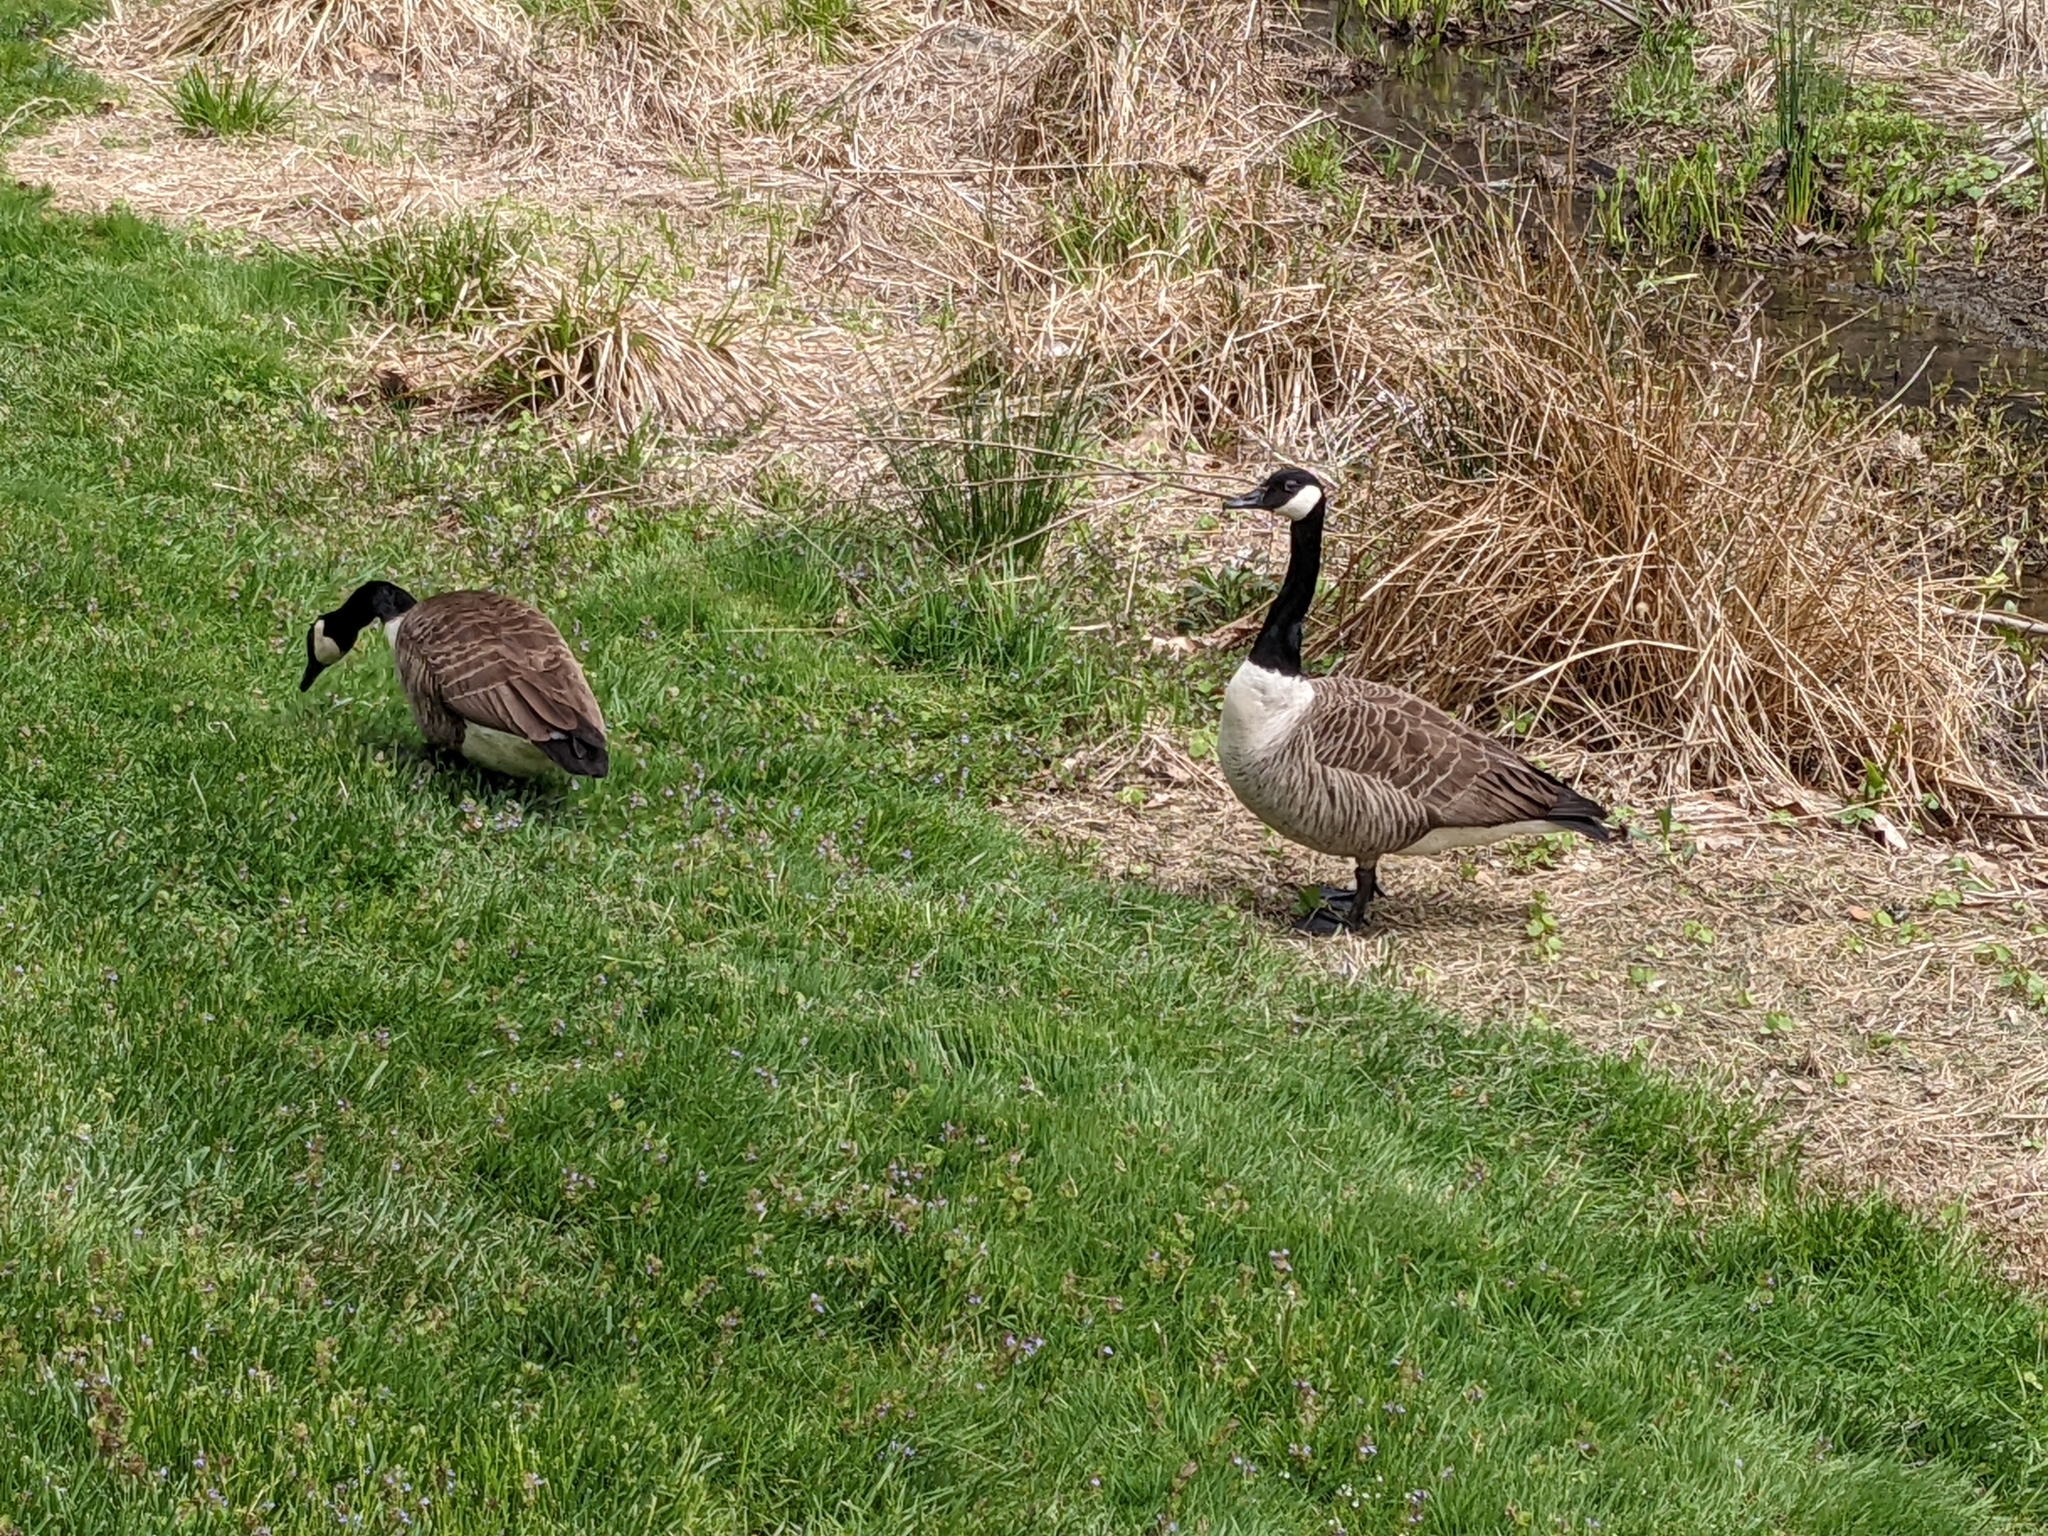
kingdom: Animalia
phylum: Chordata
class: Aves
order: Anseriformes
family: Anatidae
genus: Branta
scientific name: Branta canadensis
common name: Canada goose
